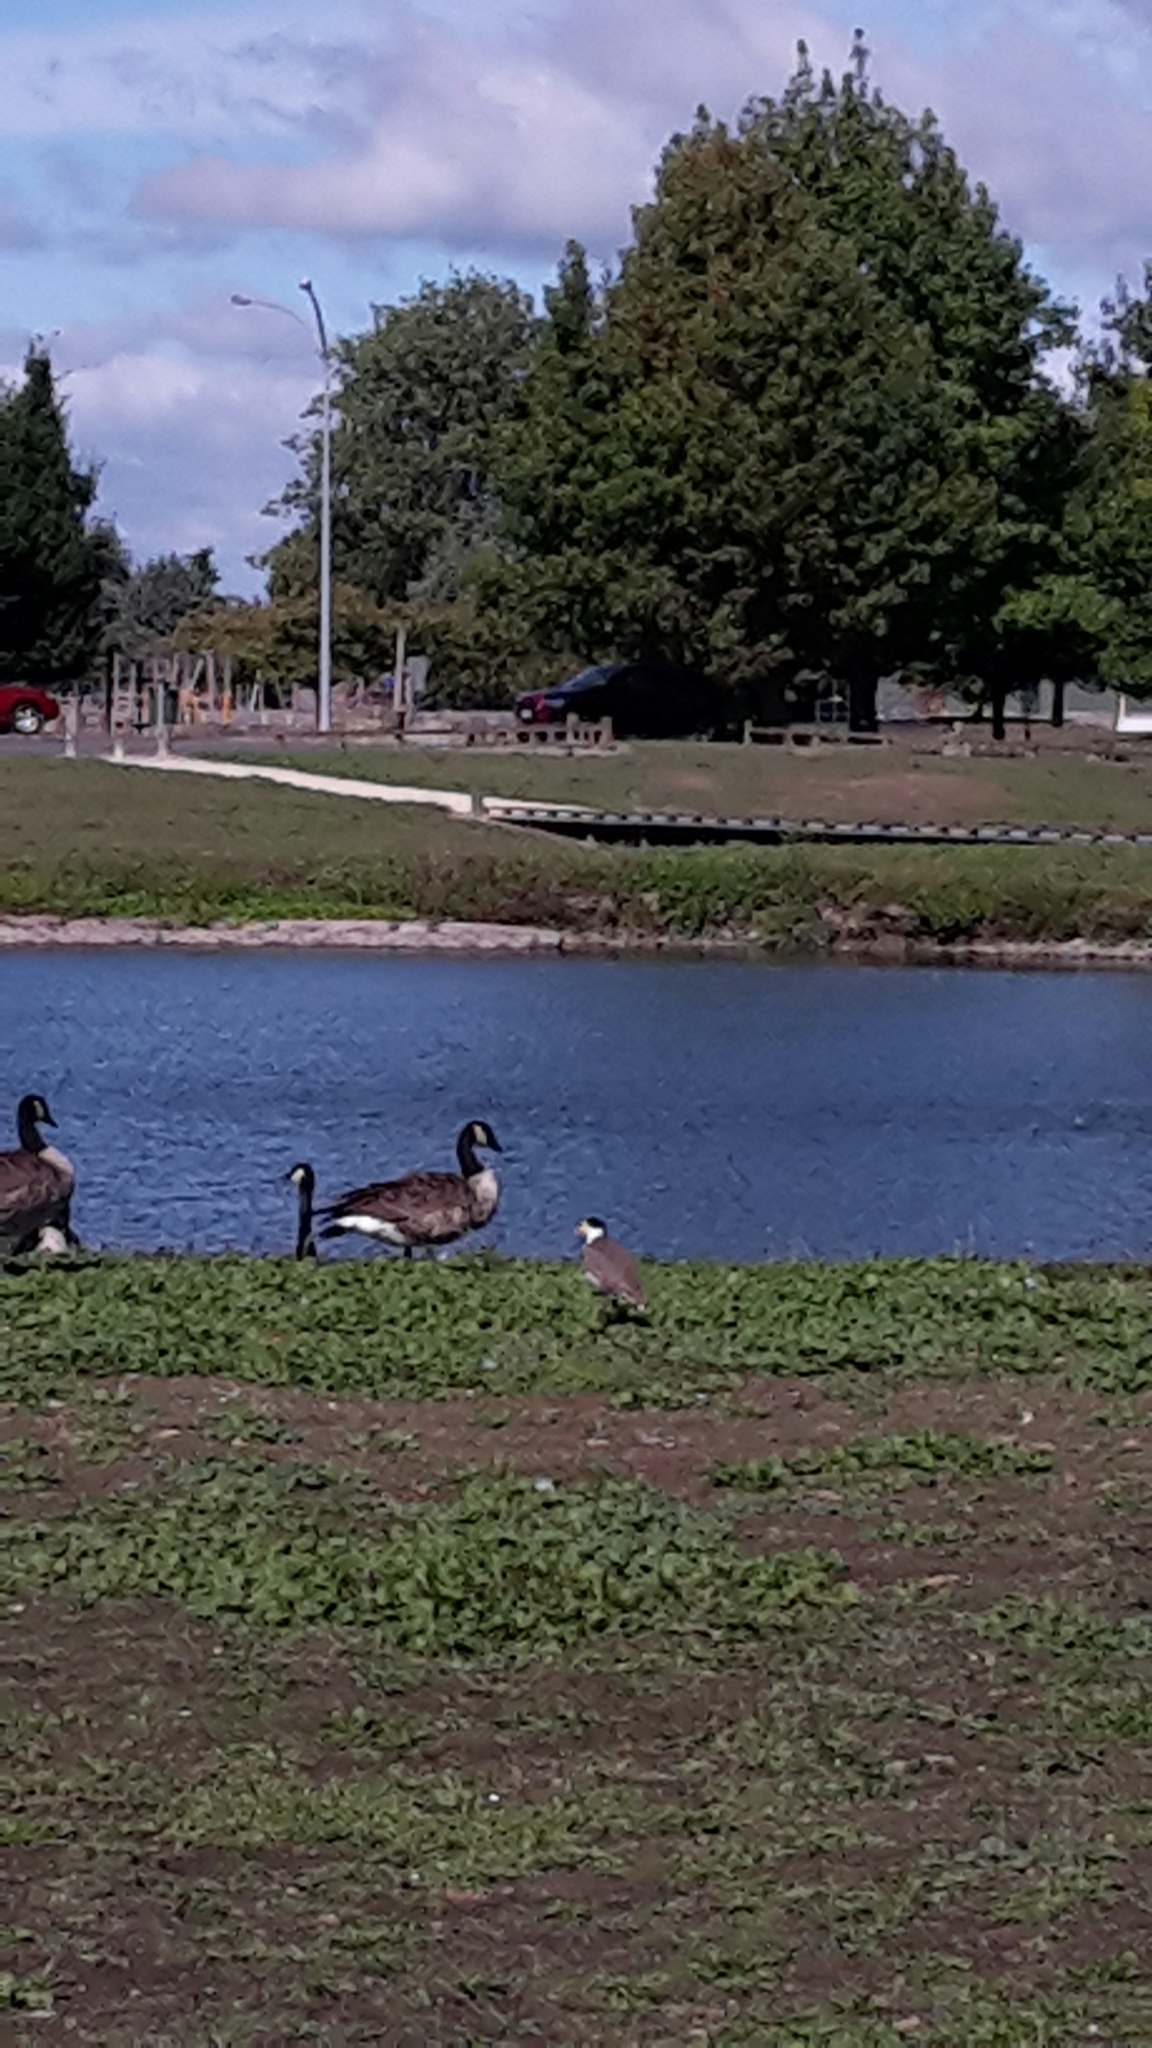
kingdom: Animalia
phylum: Chordata
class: Aves
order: Charadriiformes
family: Charadriidae
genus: Vanellus
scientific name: Vanellus miles
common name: Masked lapwing
